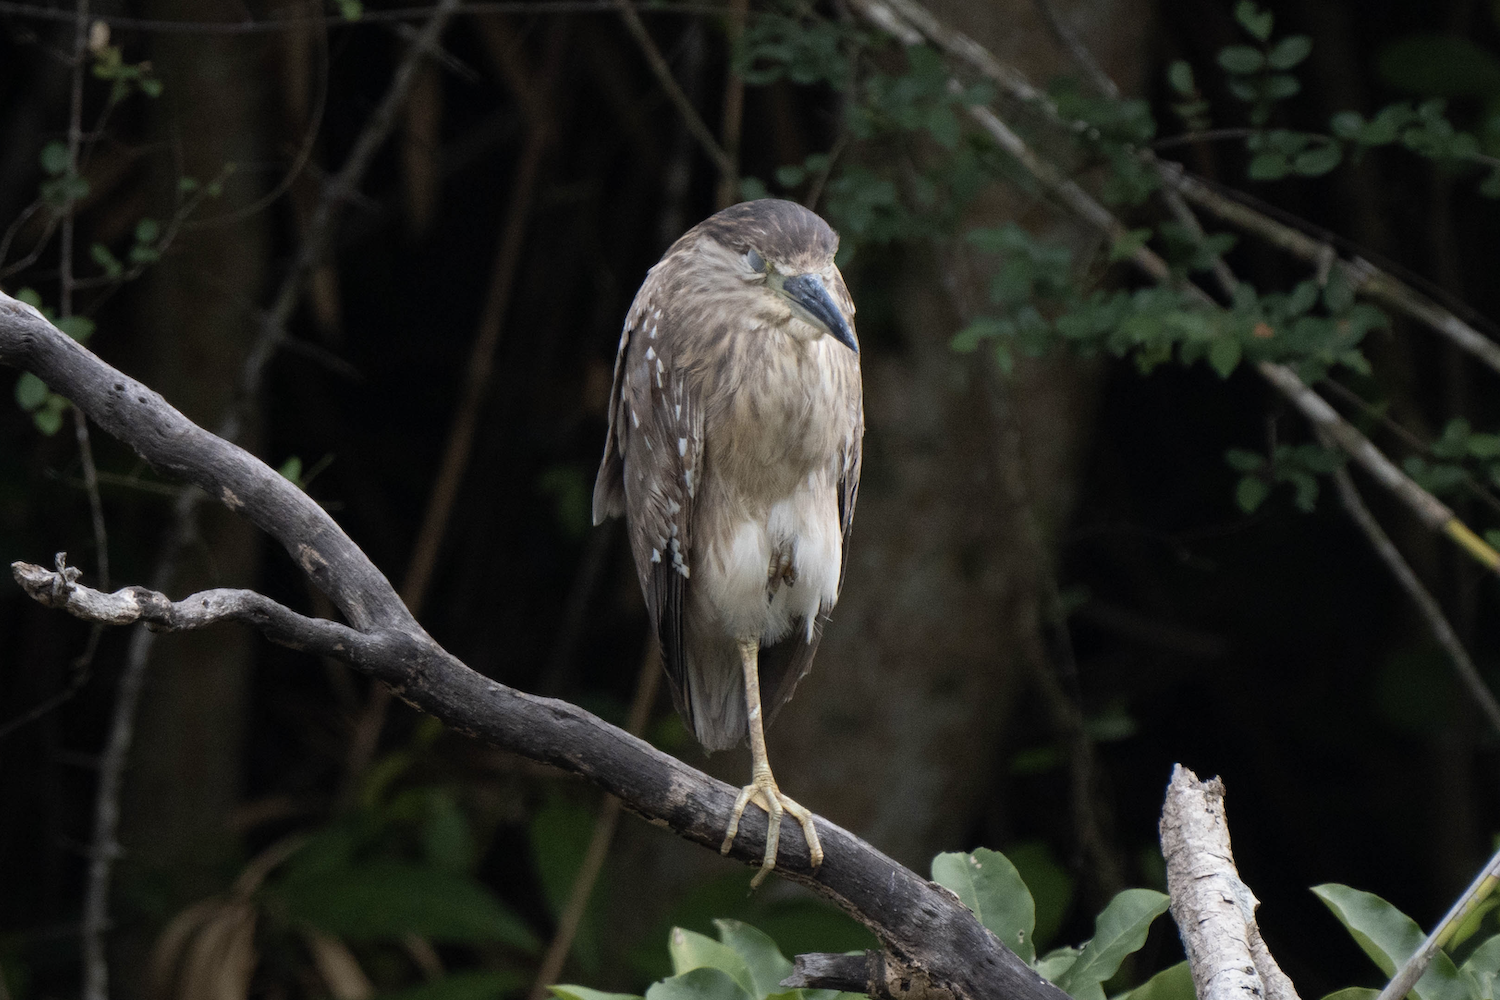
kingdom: Animalia
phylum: Chordata
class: Aves
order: Pelecaniformes
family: Ardeidae
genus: Nycticorax
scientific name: Nycticorax nycticorax
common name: Black-crowned night heron
